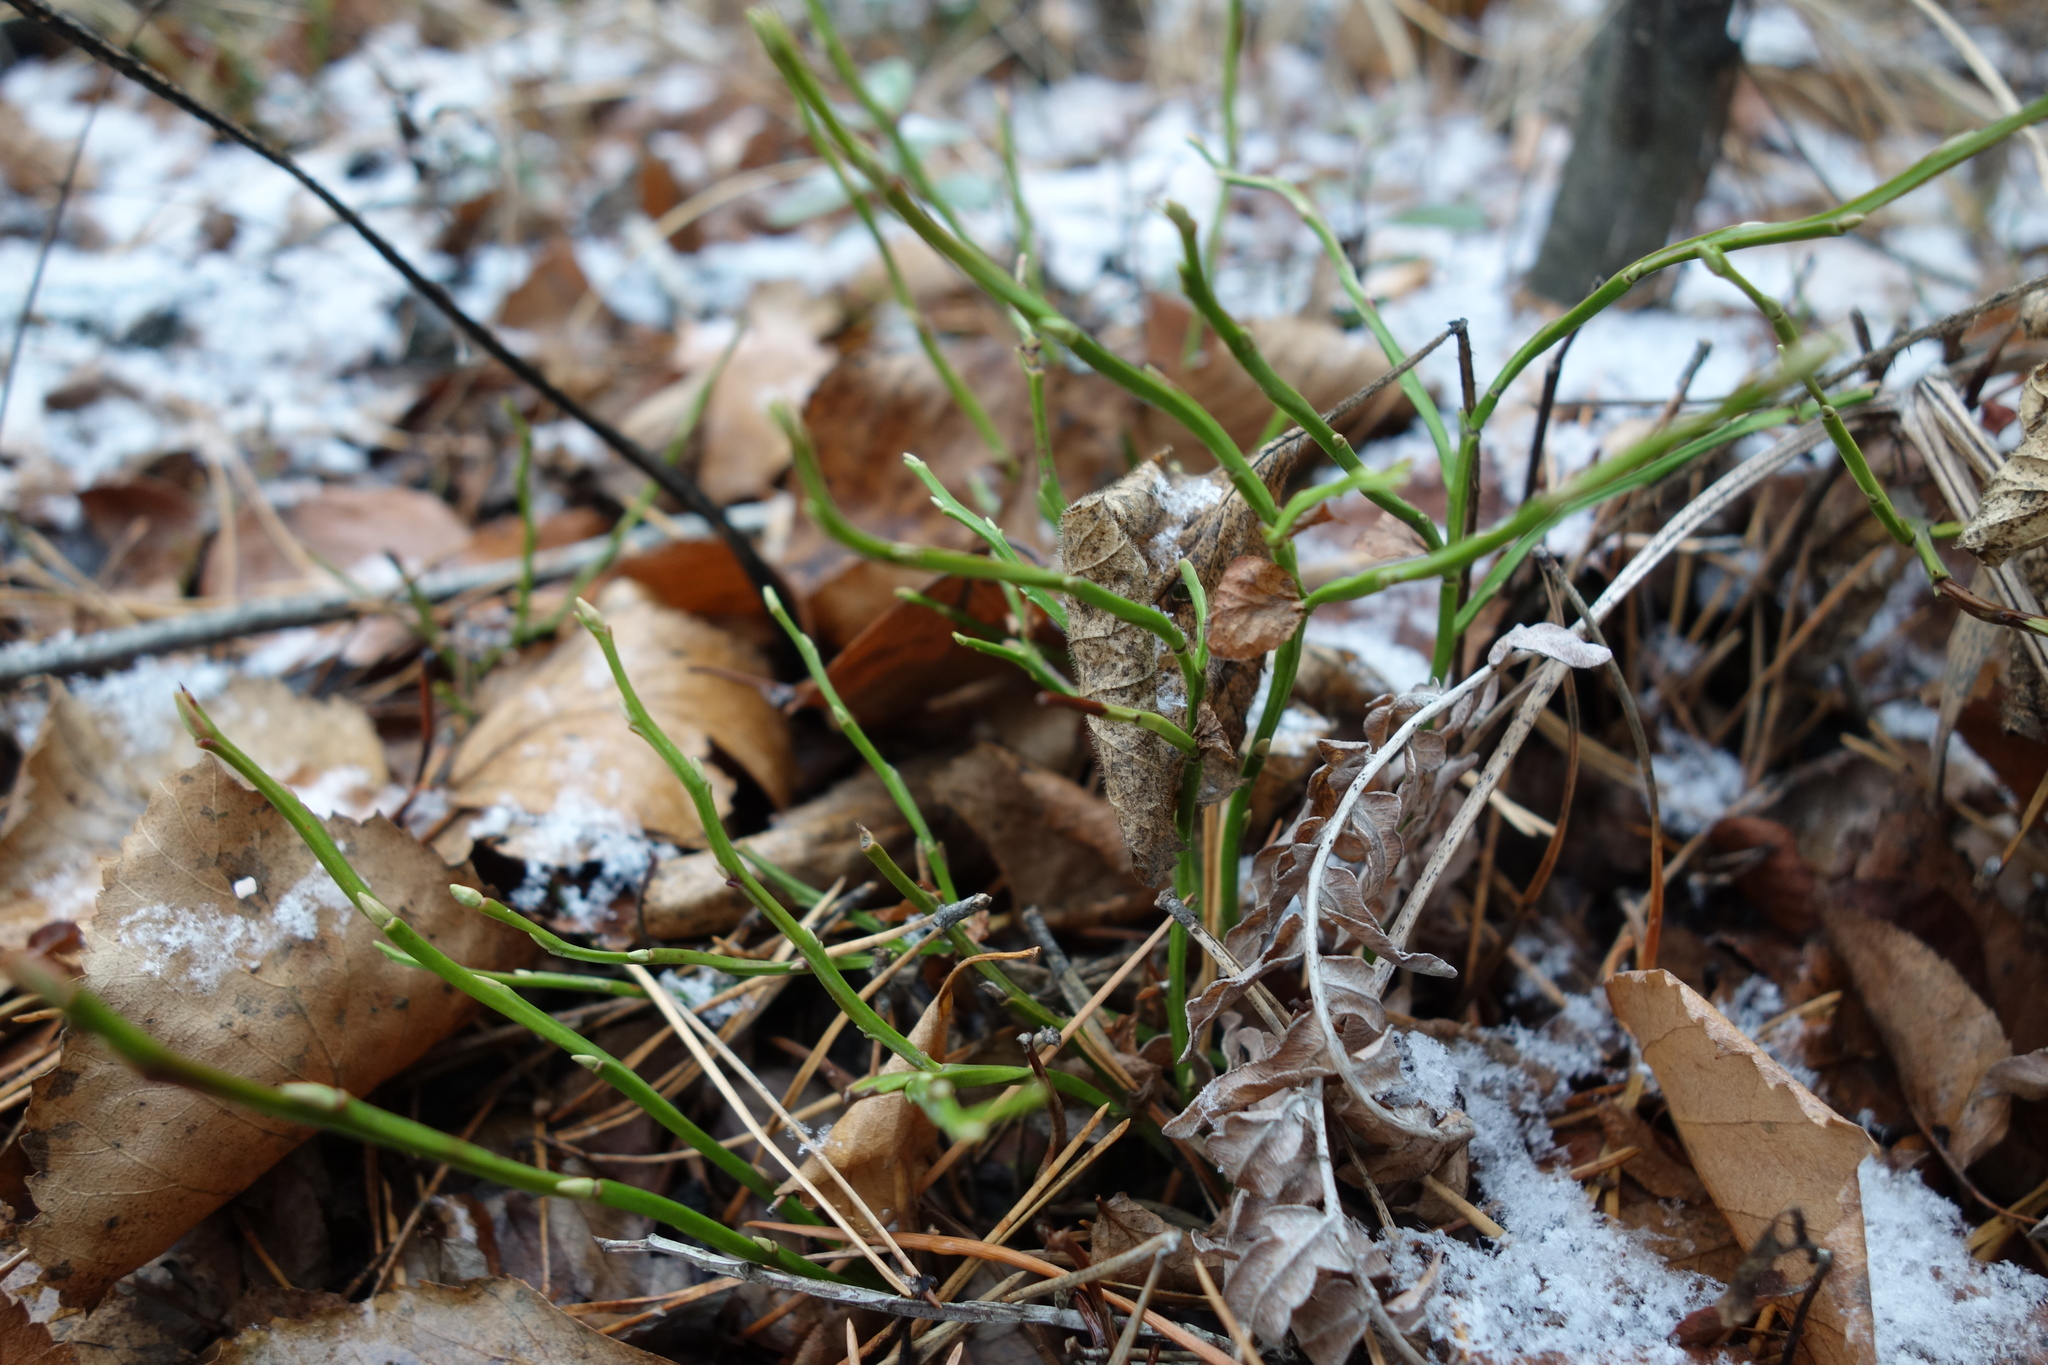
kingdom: Plantae
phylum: Tracheophyta
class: Magnoliopsida
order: Ericales
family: Ericaceae
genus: Vaccinium
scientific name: Vaccinium myrtillus
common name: Bilberry
